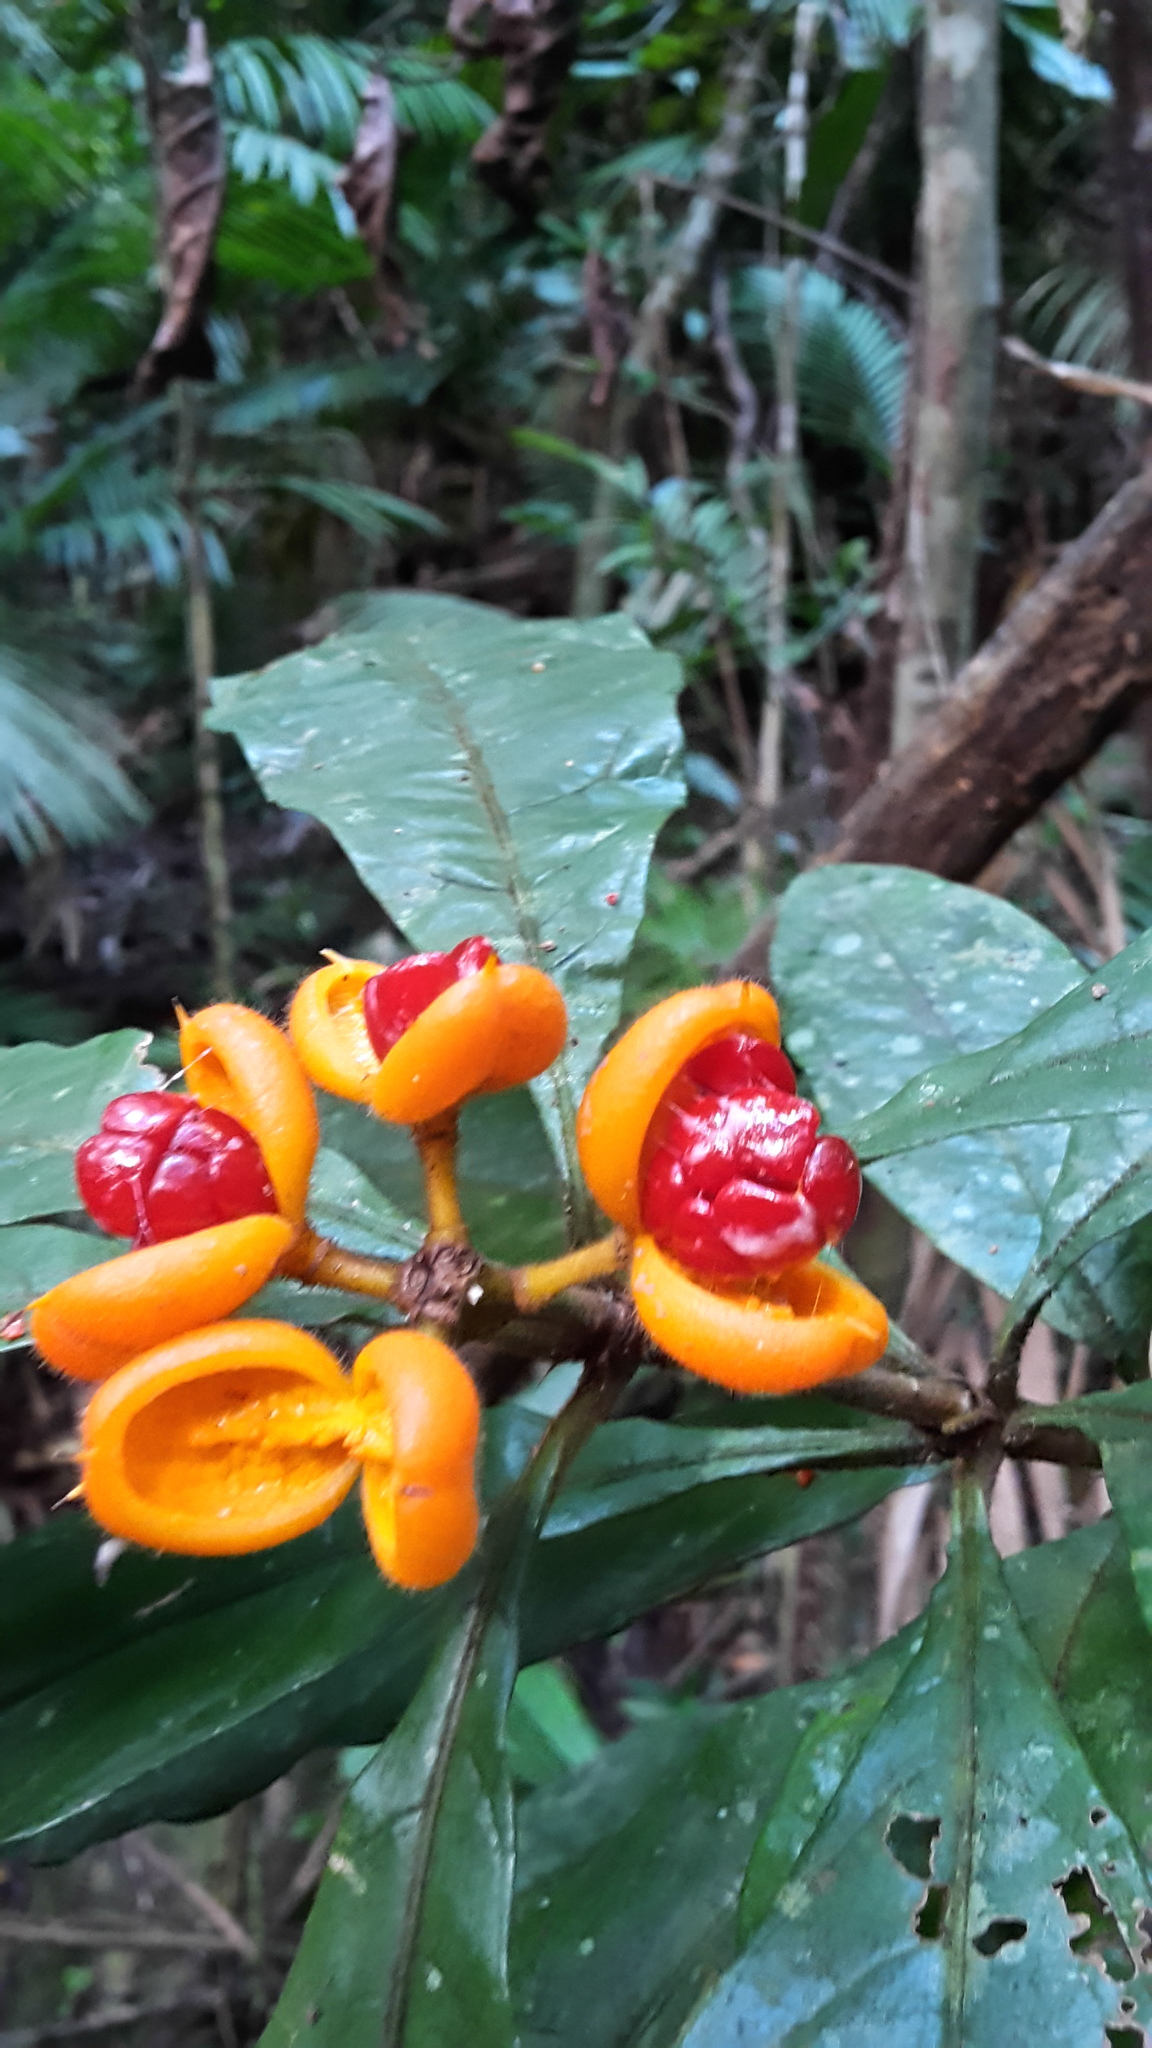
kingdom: Plantae
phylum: Tracheophyta
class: Magnoliopsida
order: Apiales
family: Pittosporaceae
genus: Pittosporum
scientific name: Pittosporum rubiginosum
